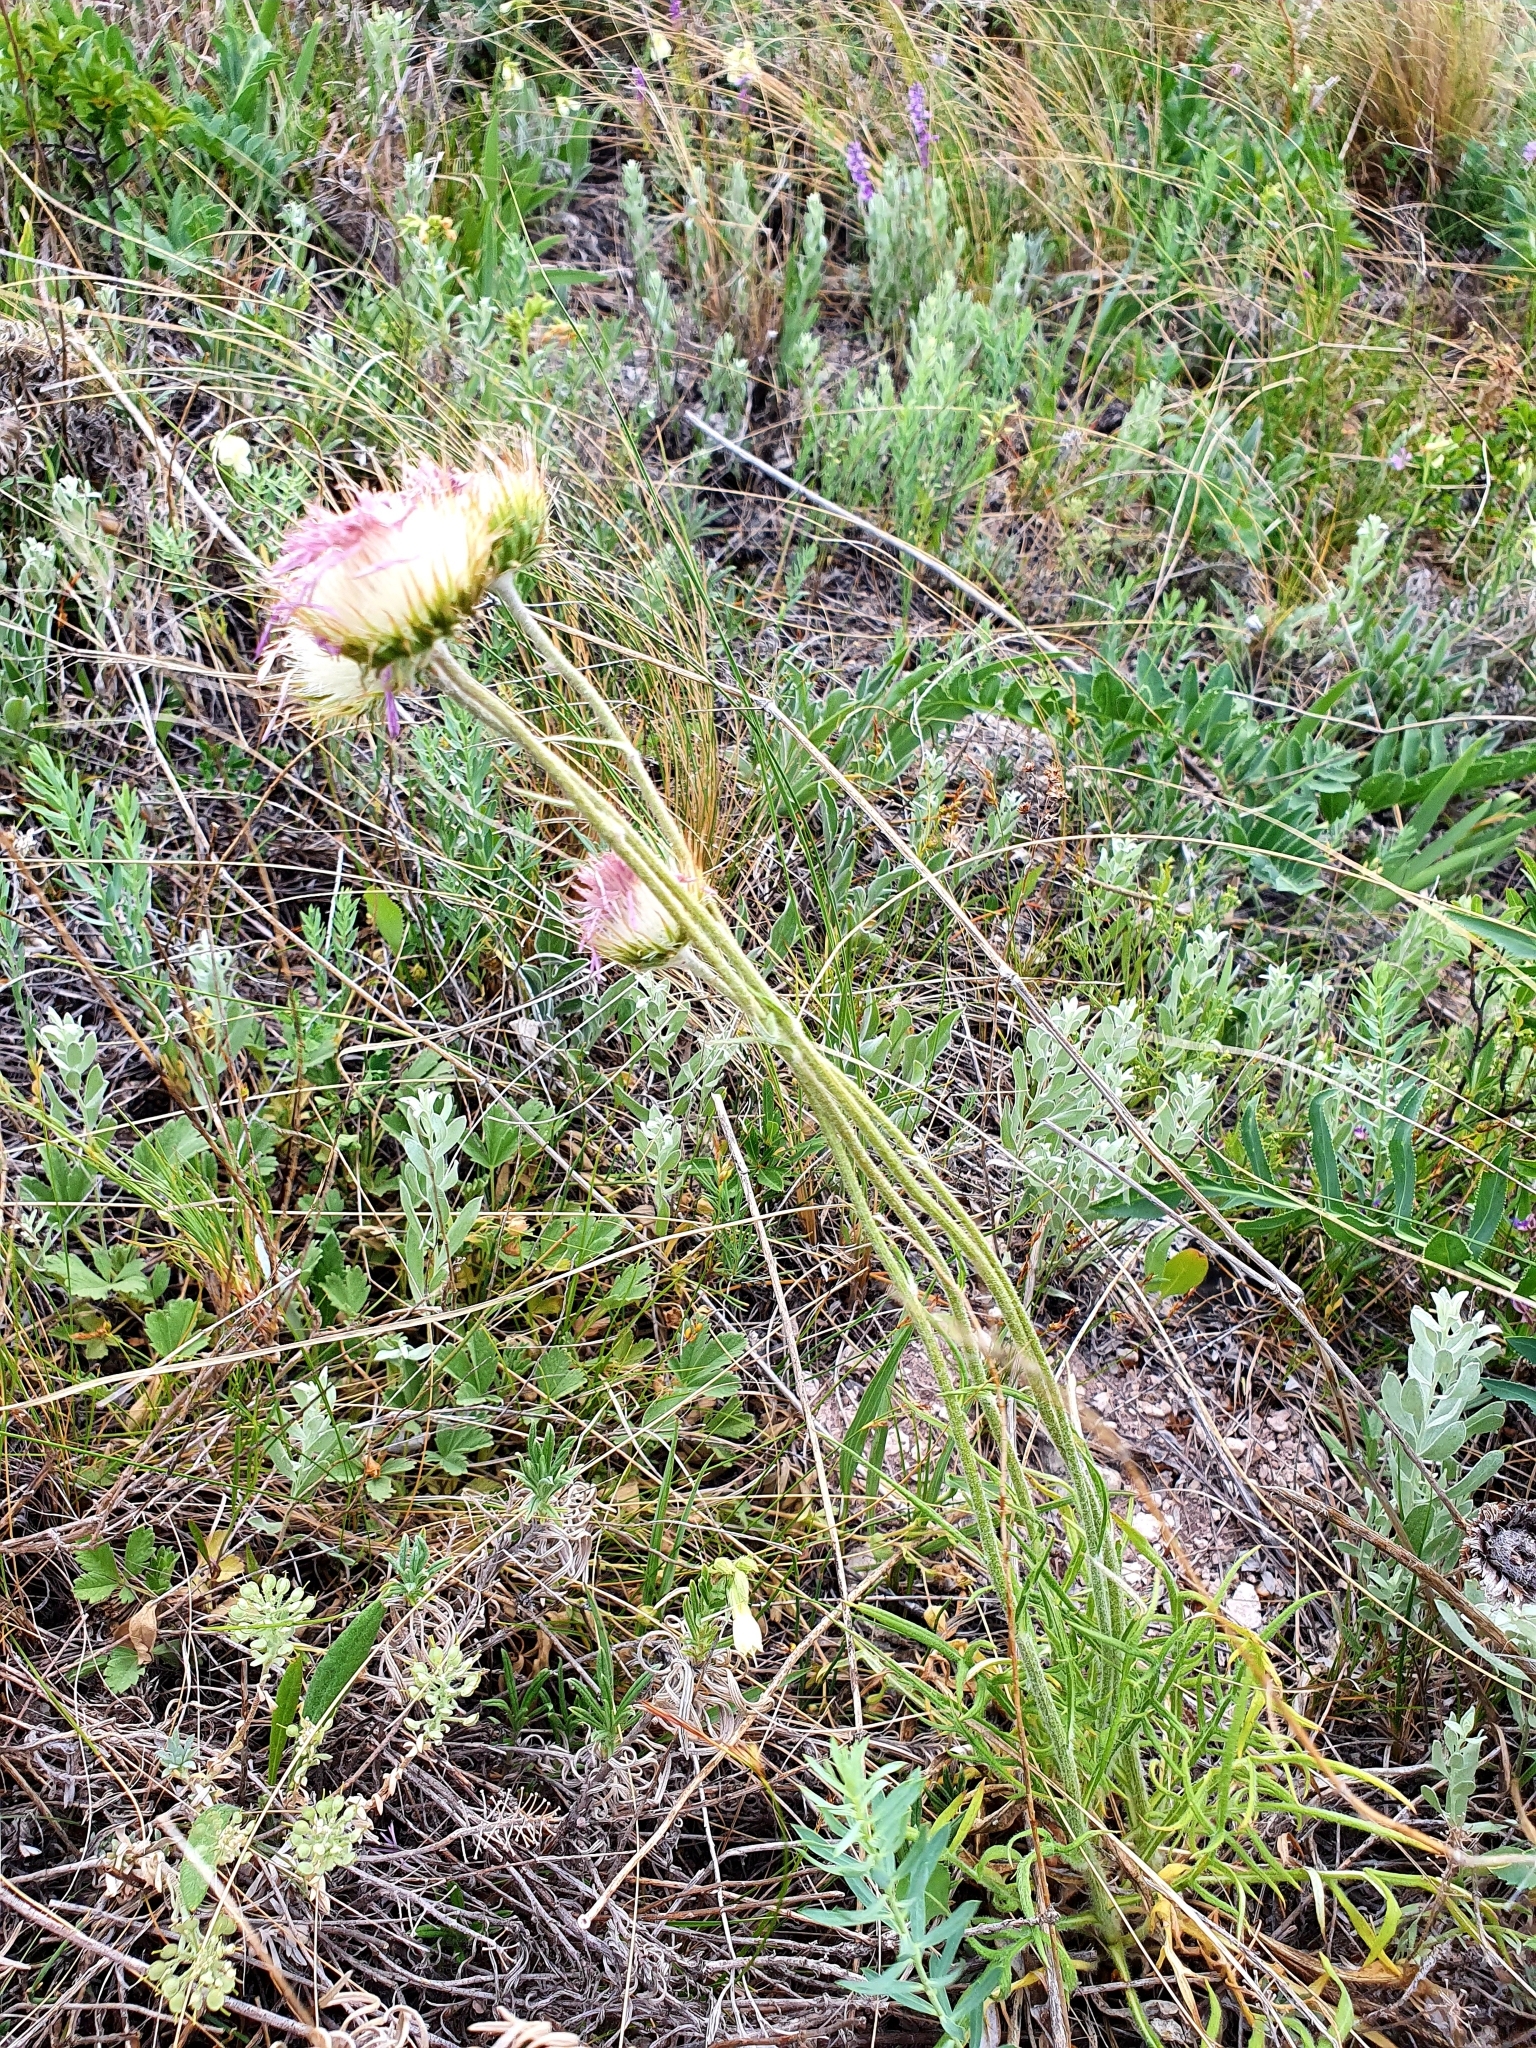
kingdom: Plantae
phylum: Tracheophyta
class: Magnoliopsida
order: Asterales
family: Asteraceae
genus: Jurinea
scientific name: Jurinea ledebourii
